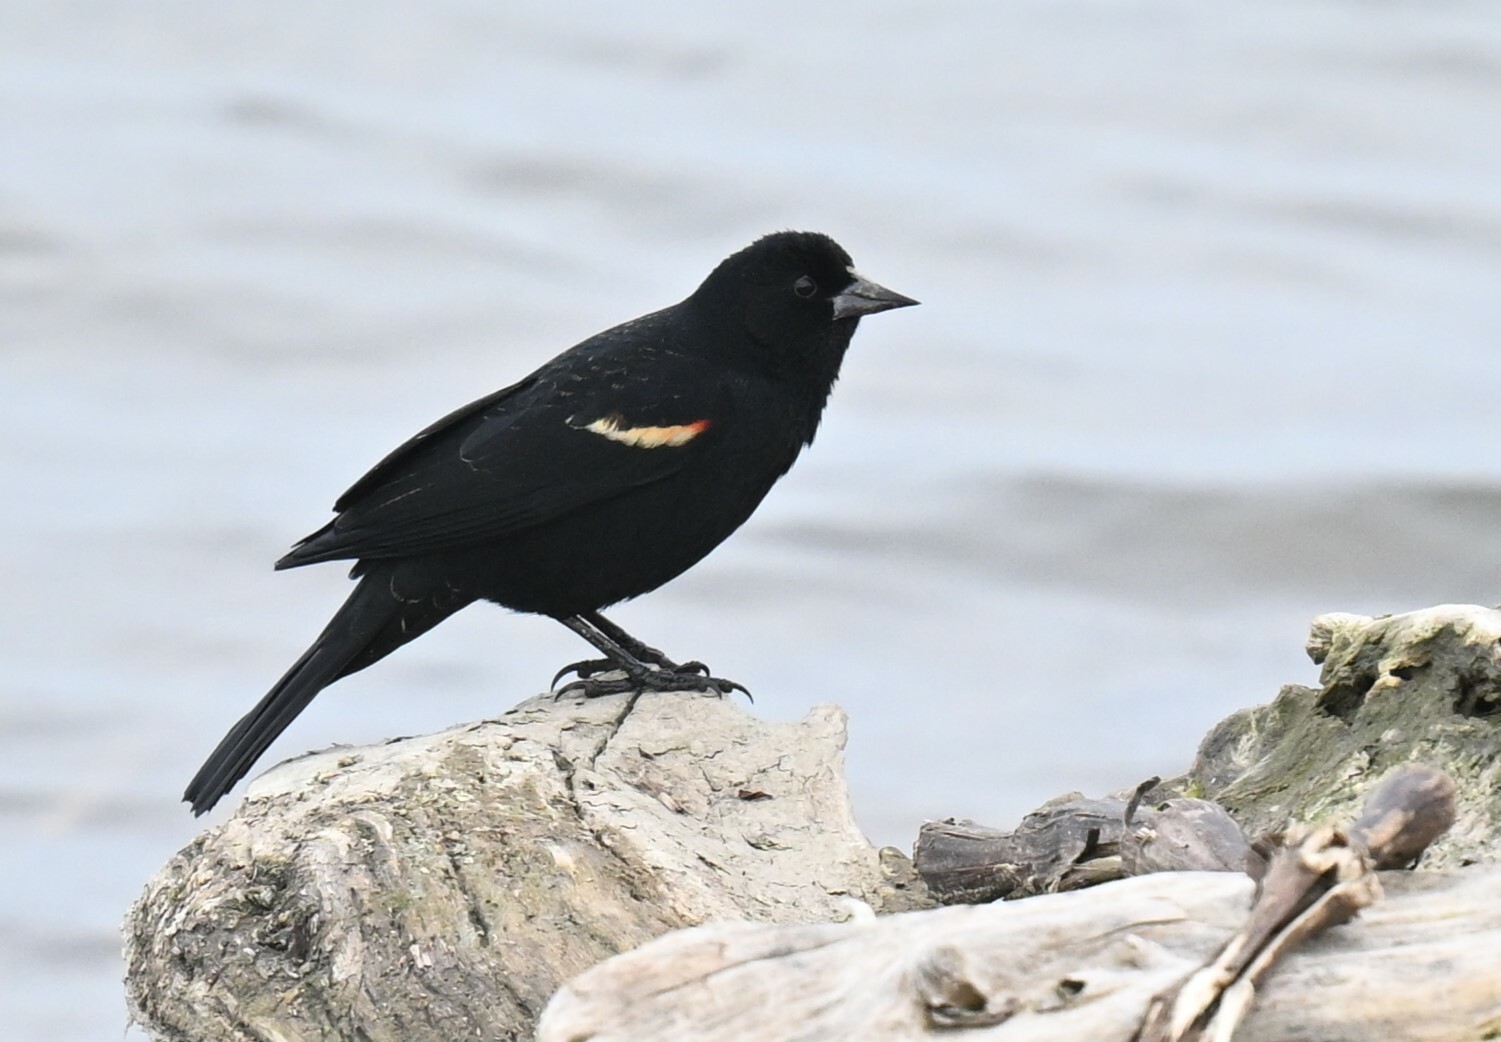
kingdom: Animalia
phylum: Chordata
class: Aves
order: Passeriformes
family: Icteridae
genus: Agelaius
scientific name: Agelaius phoeniceus
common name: Red-winged blackbird
